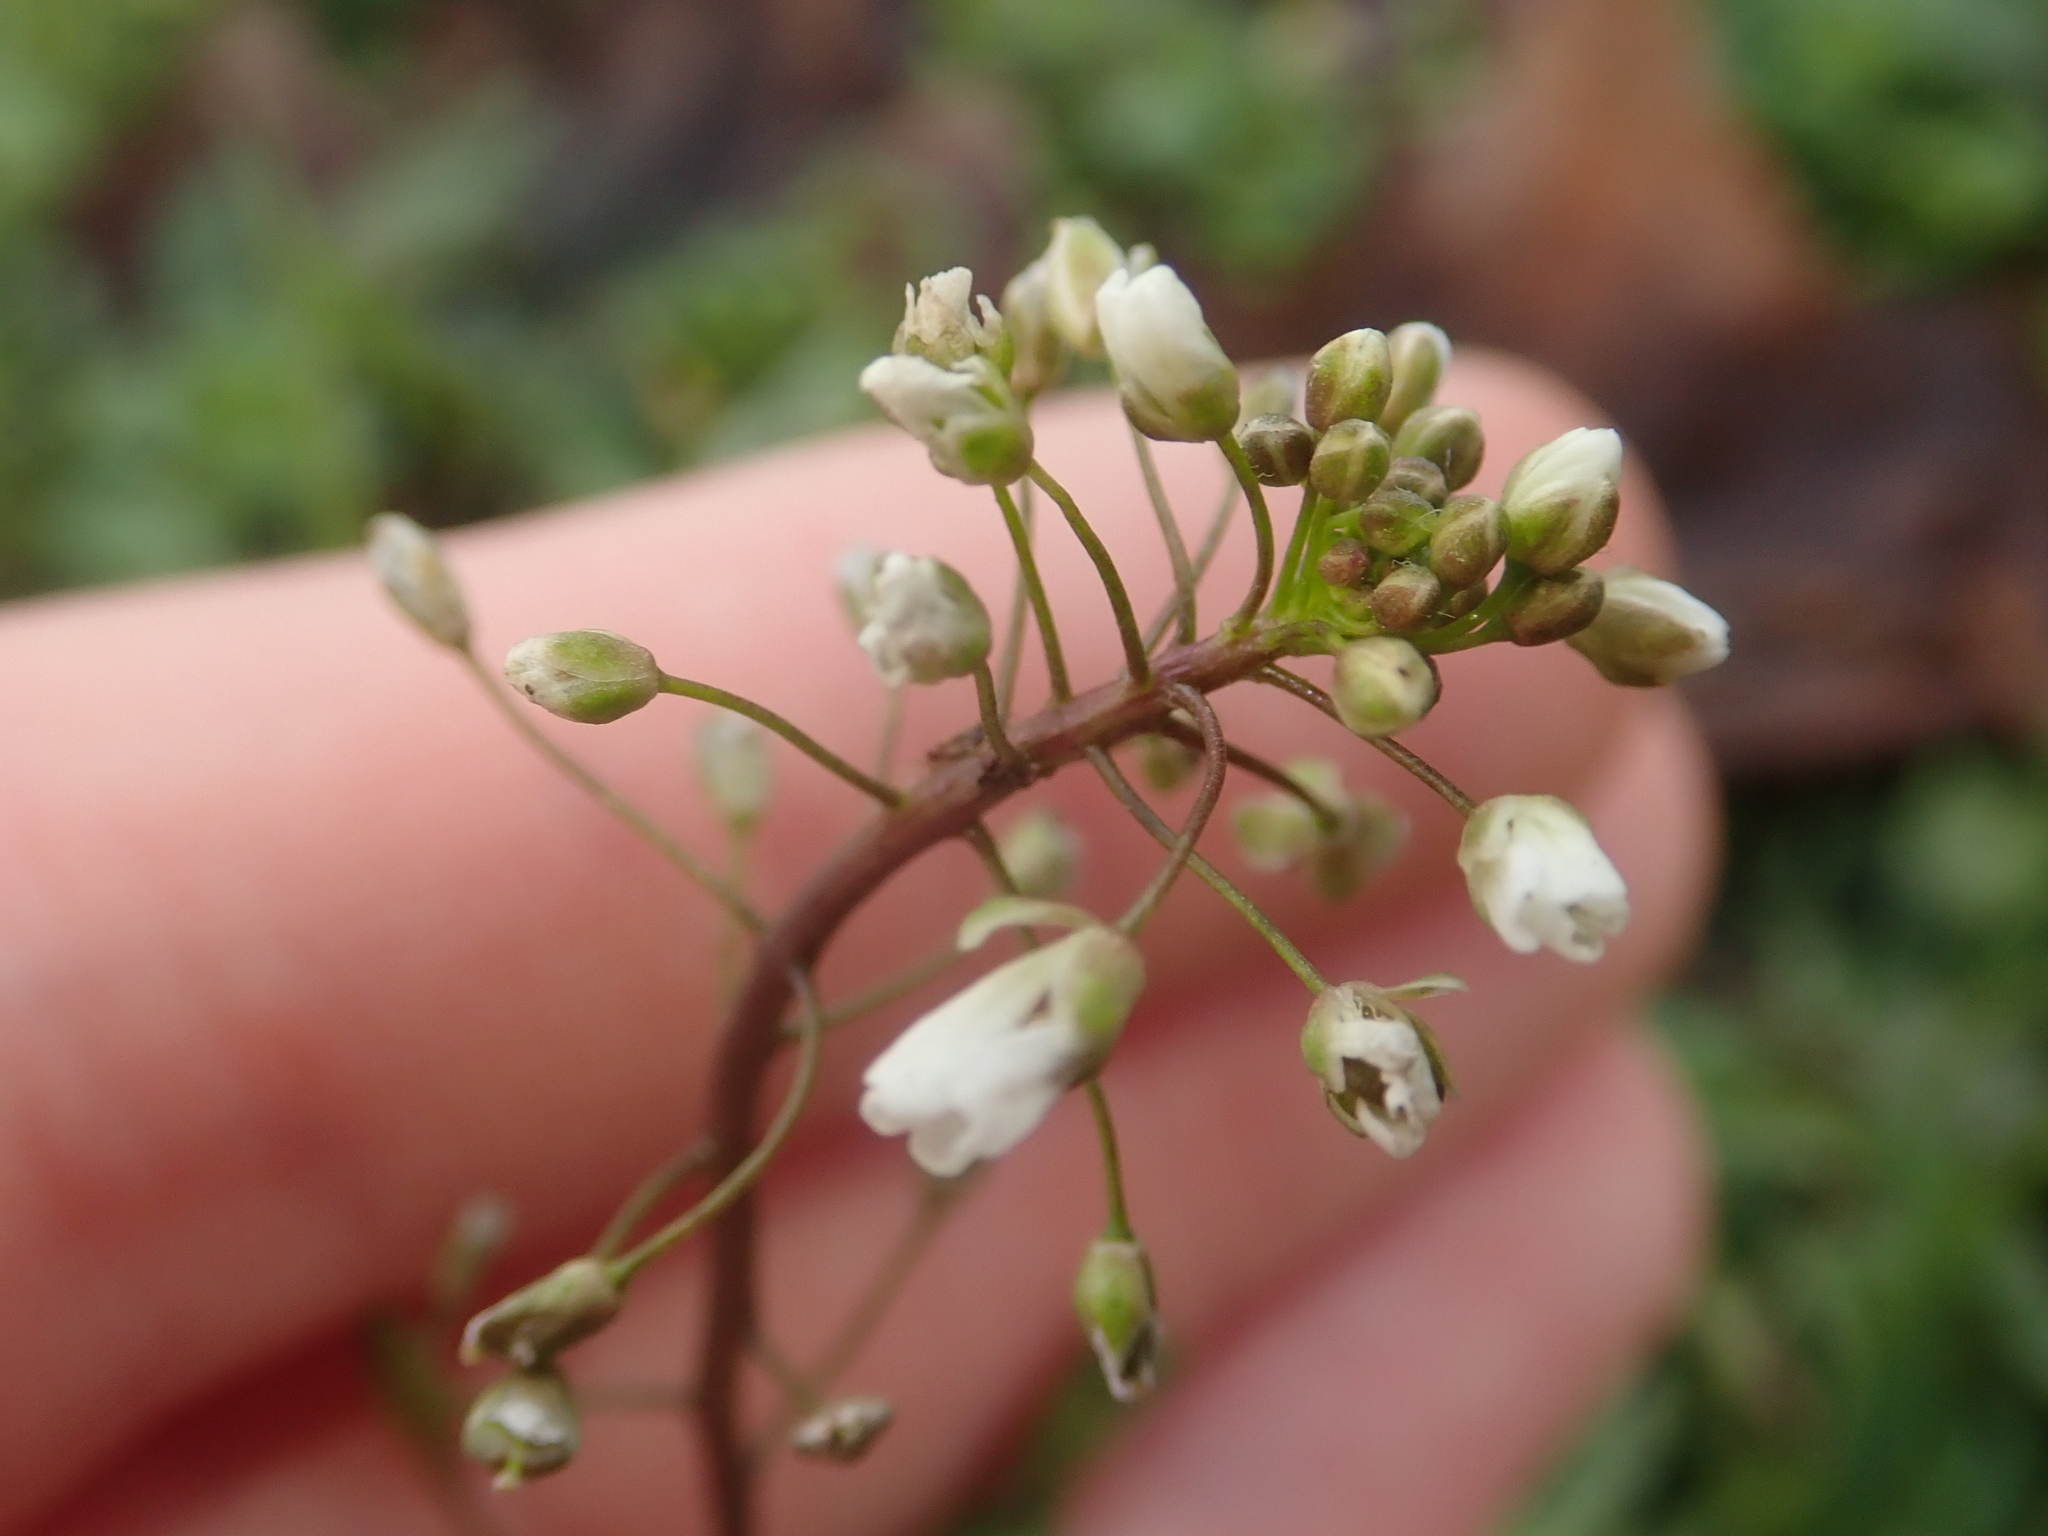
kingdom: Plantae
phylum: Tracheophyta
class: Magnoliopsida
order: Brassicales
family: Brassicaceae
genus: Capsella
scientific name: Capsella bursa-pastoris
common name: Shepherd's purse
